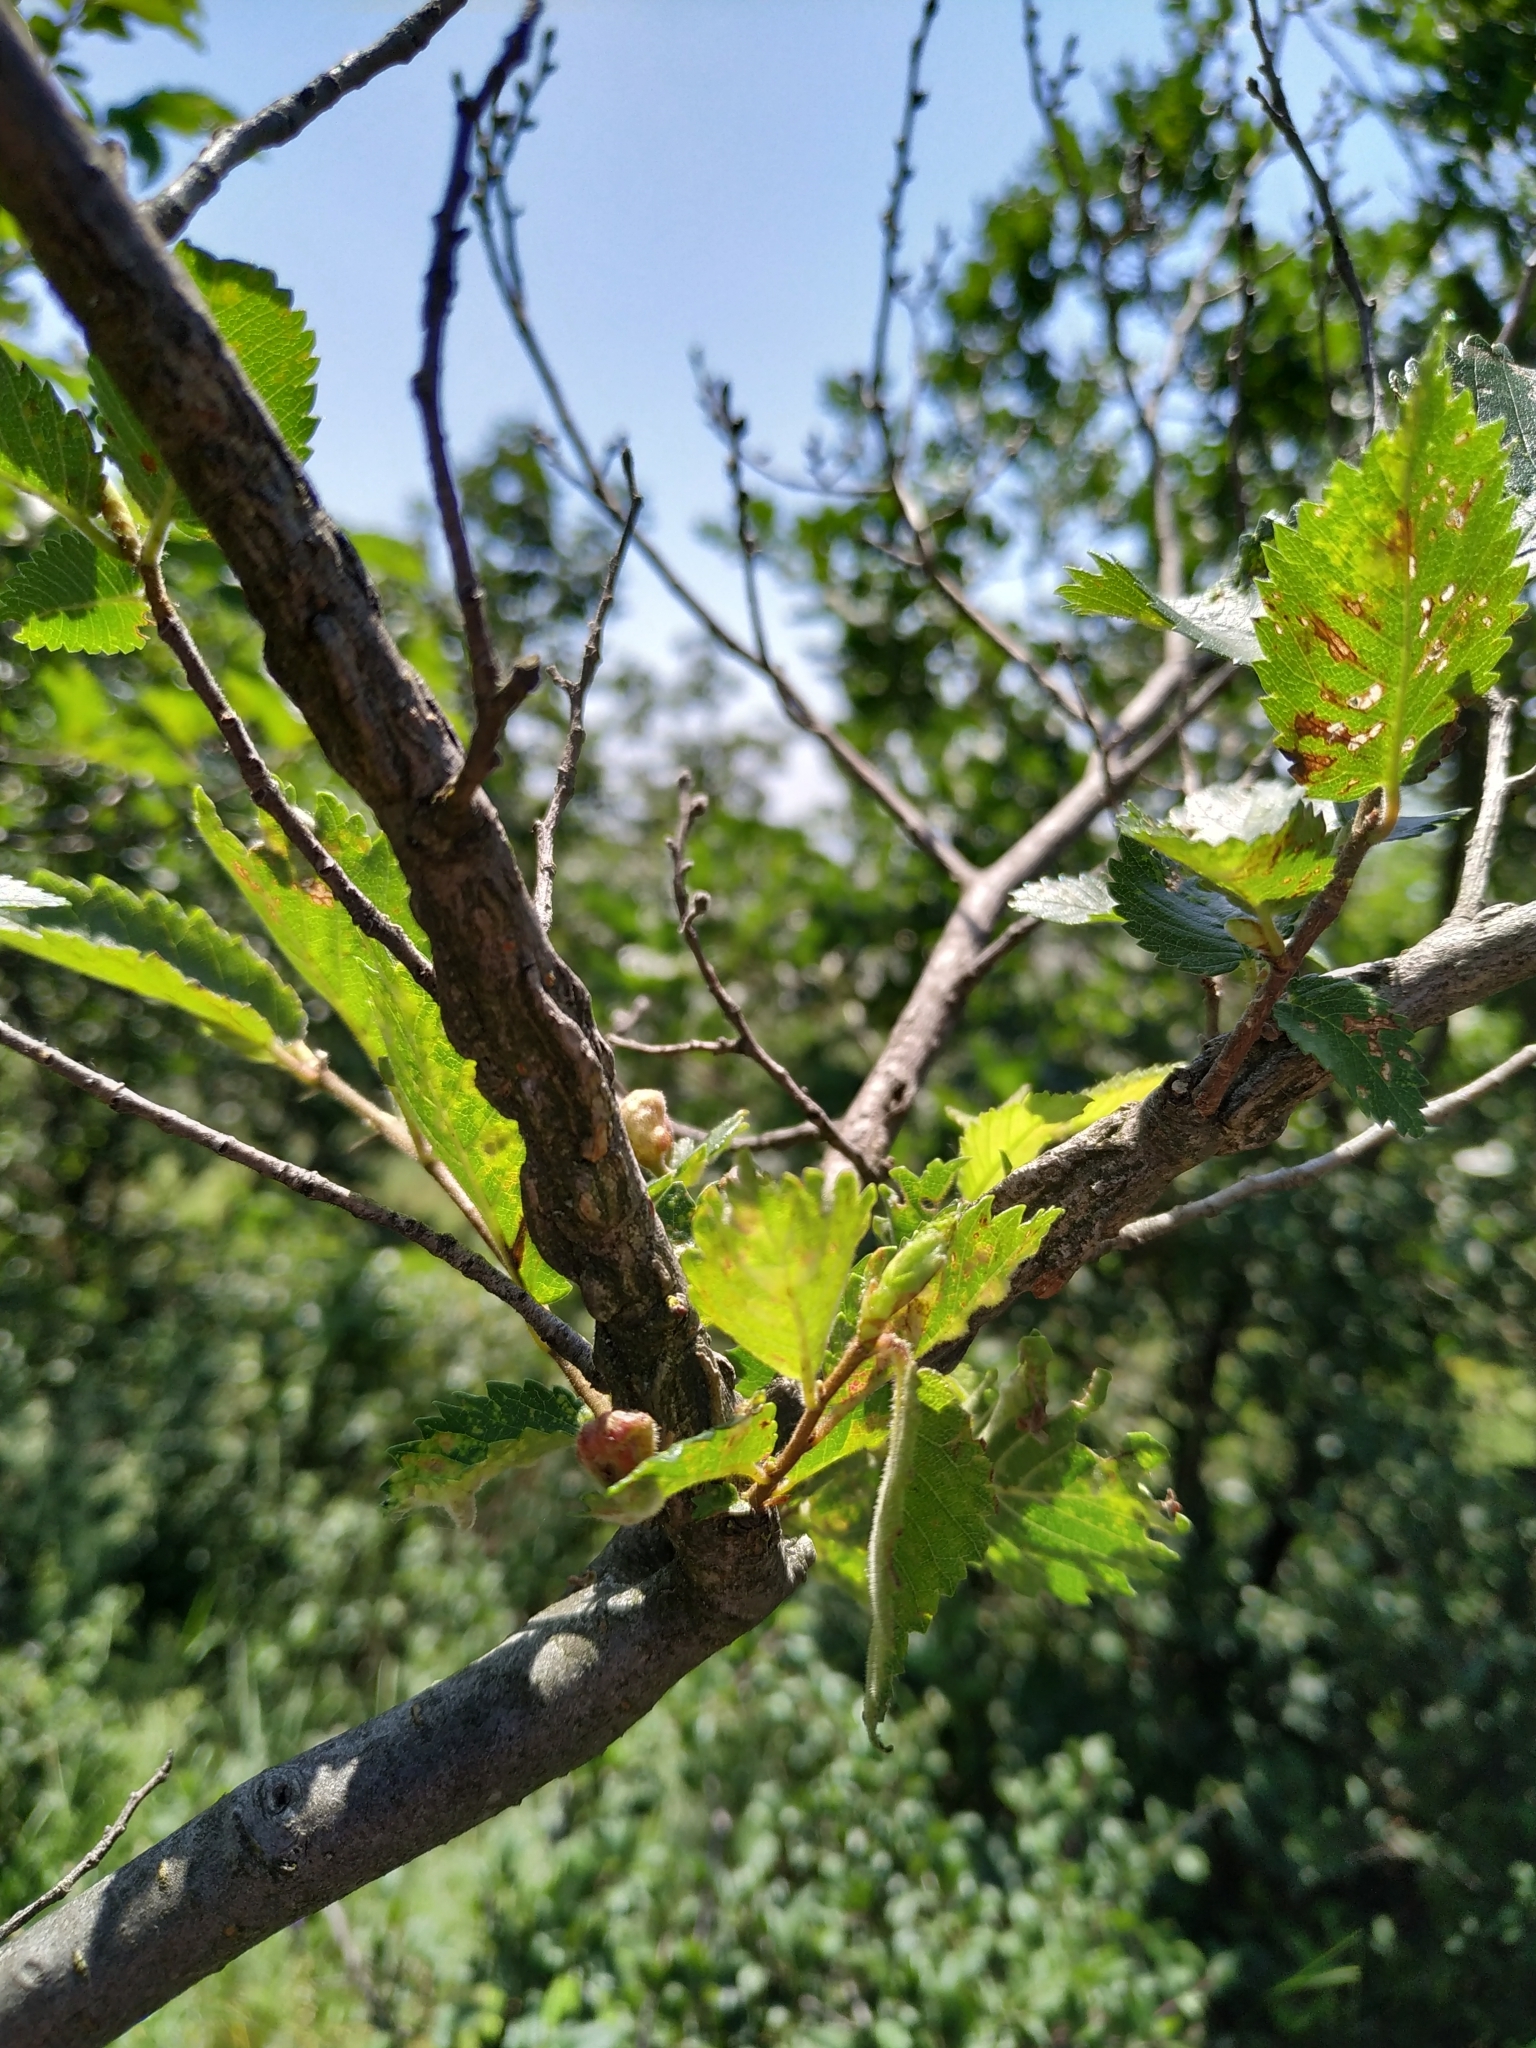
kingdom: Plantae
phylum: Tracheophyta
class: Magnoliopsida
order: Rosales
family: Ulmaceae
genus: Ulmus
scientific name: Ulmus minor
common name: Small-leaved elm
